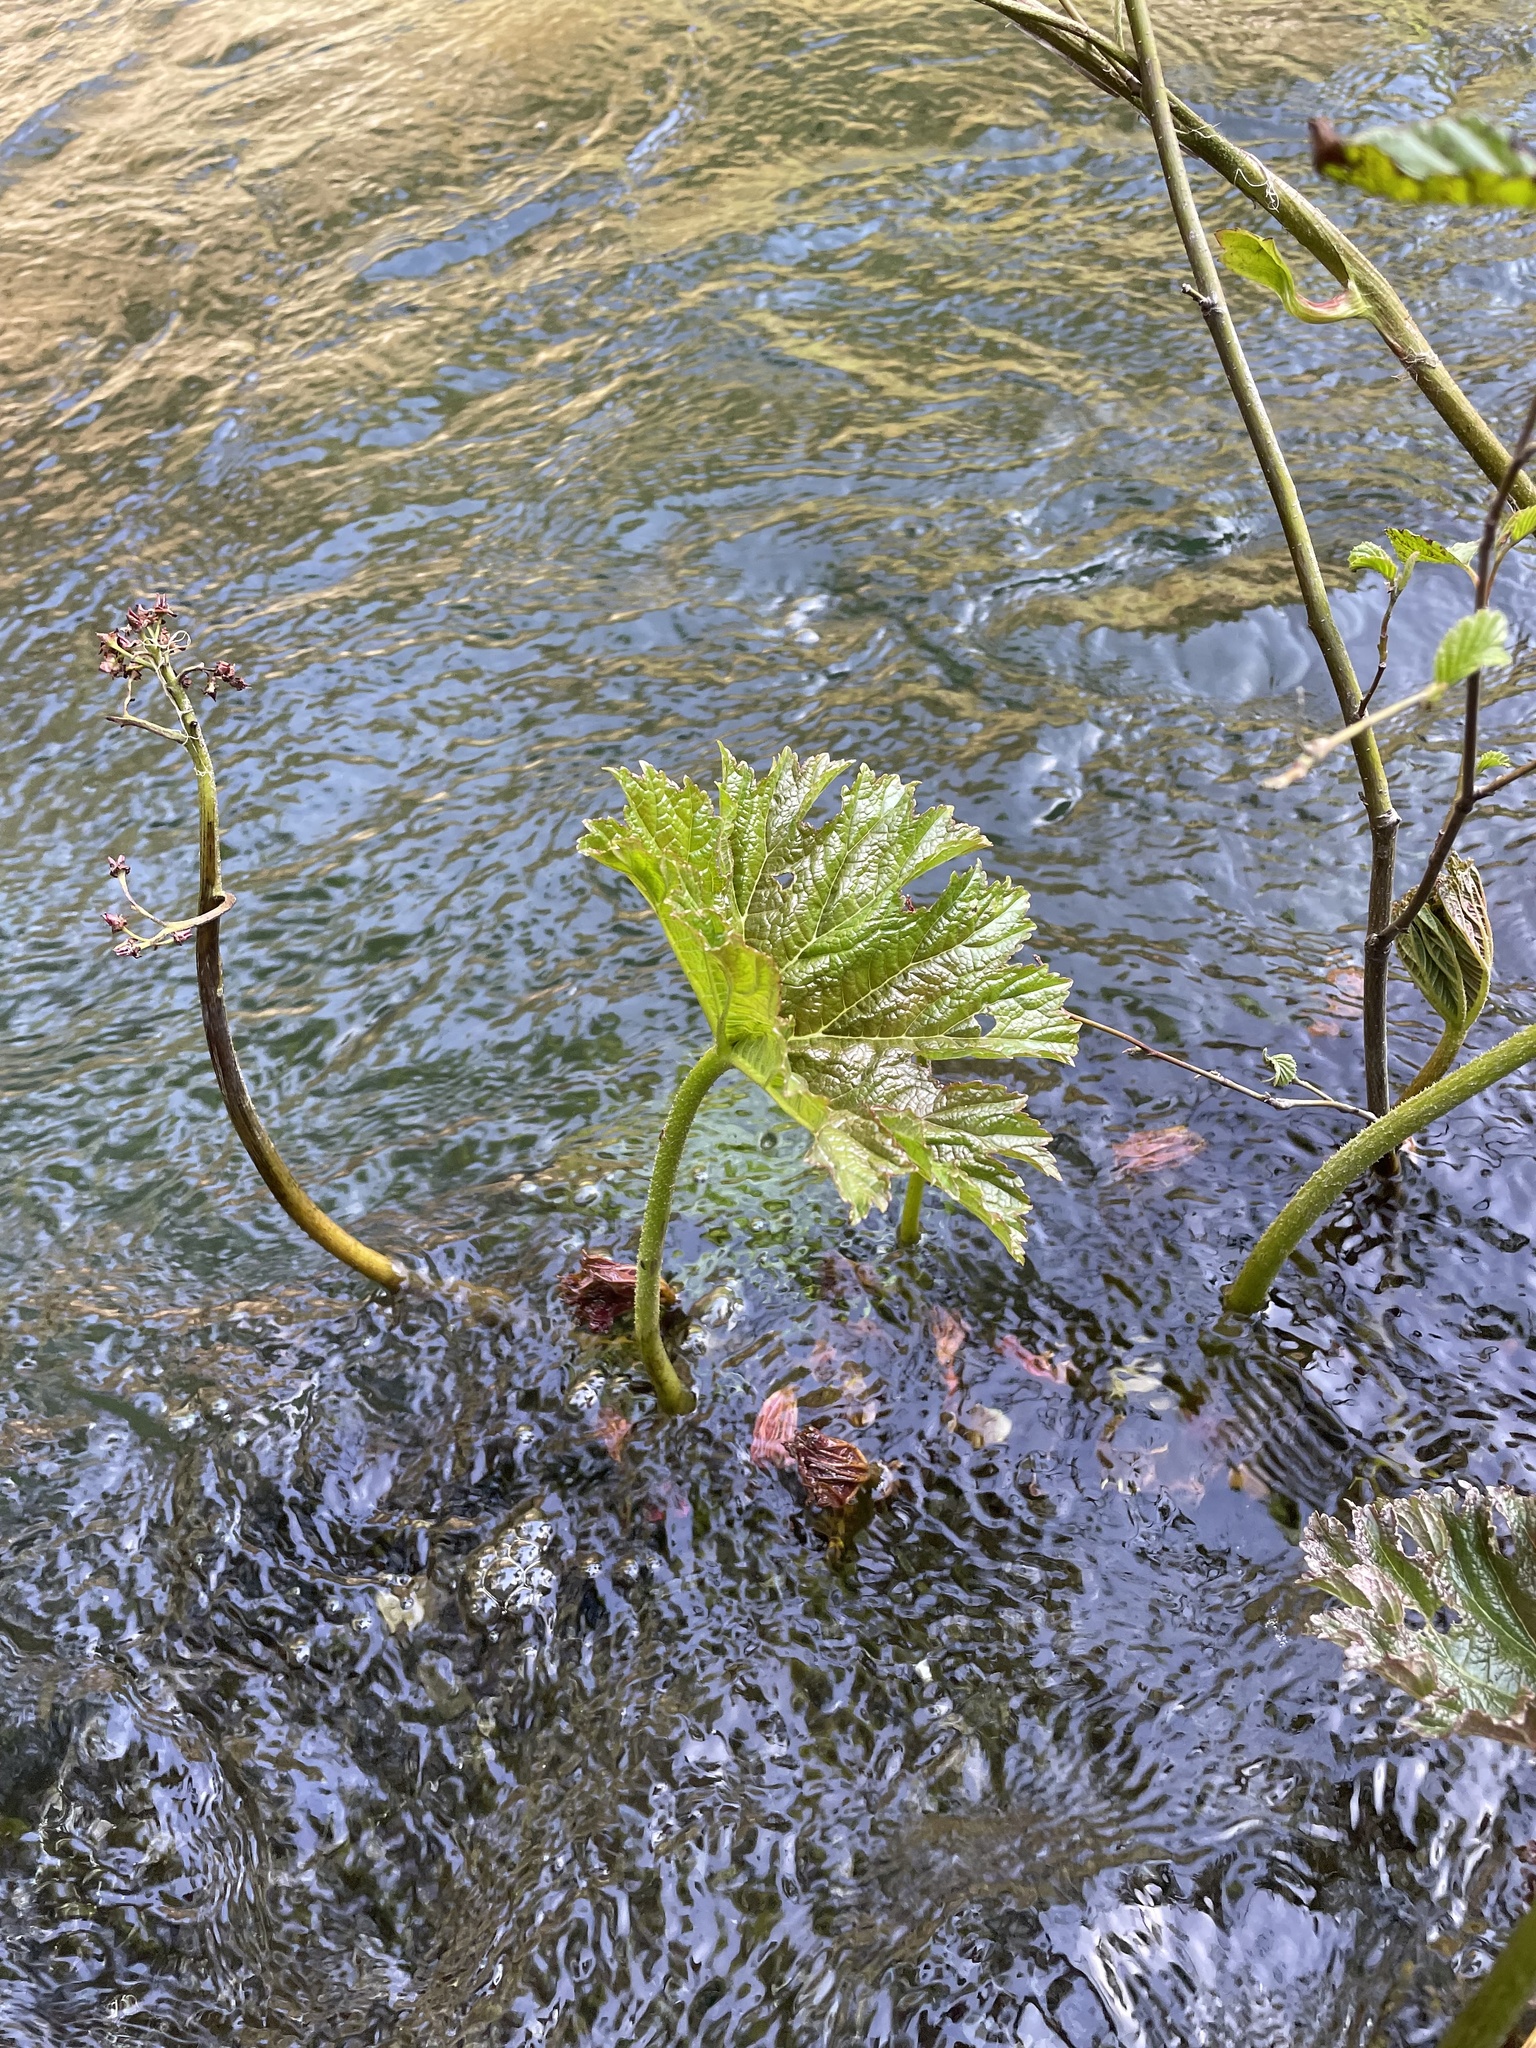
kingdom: Plantae
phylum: Tracheophyta
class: Magnoliopsida
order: Saxifragales
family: Saxifragaceae
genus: Darmera
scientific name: Darmera peltata
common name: Indian-rhubarb
